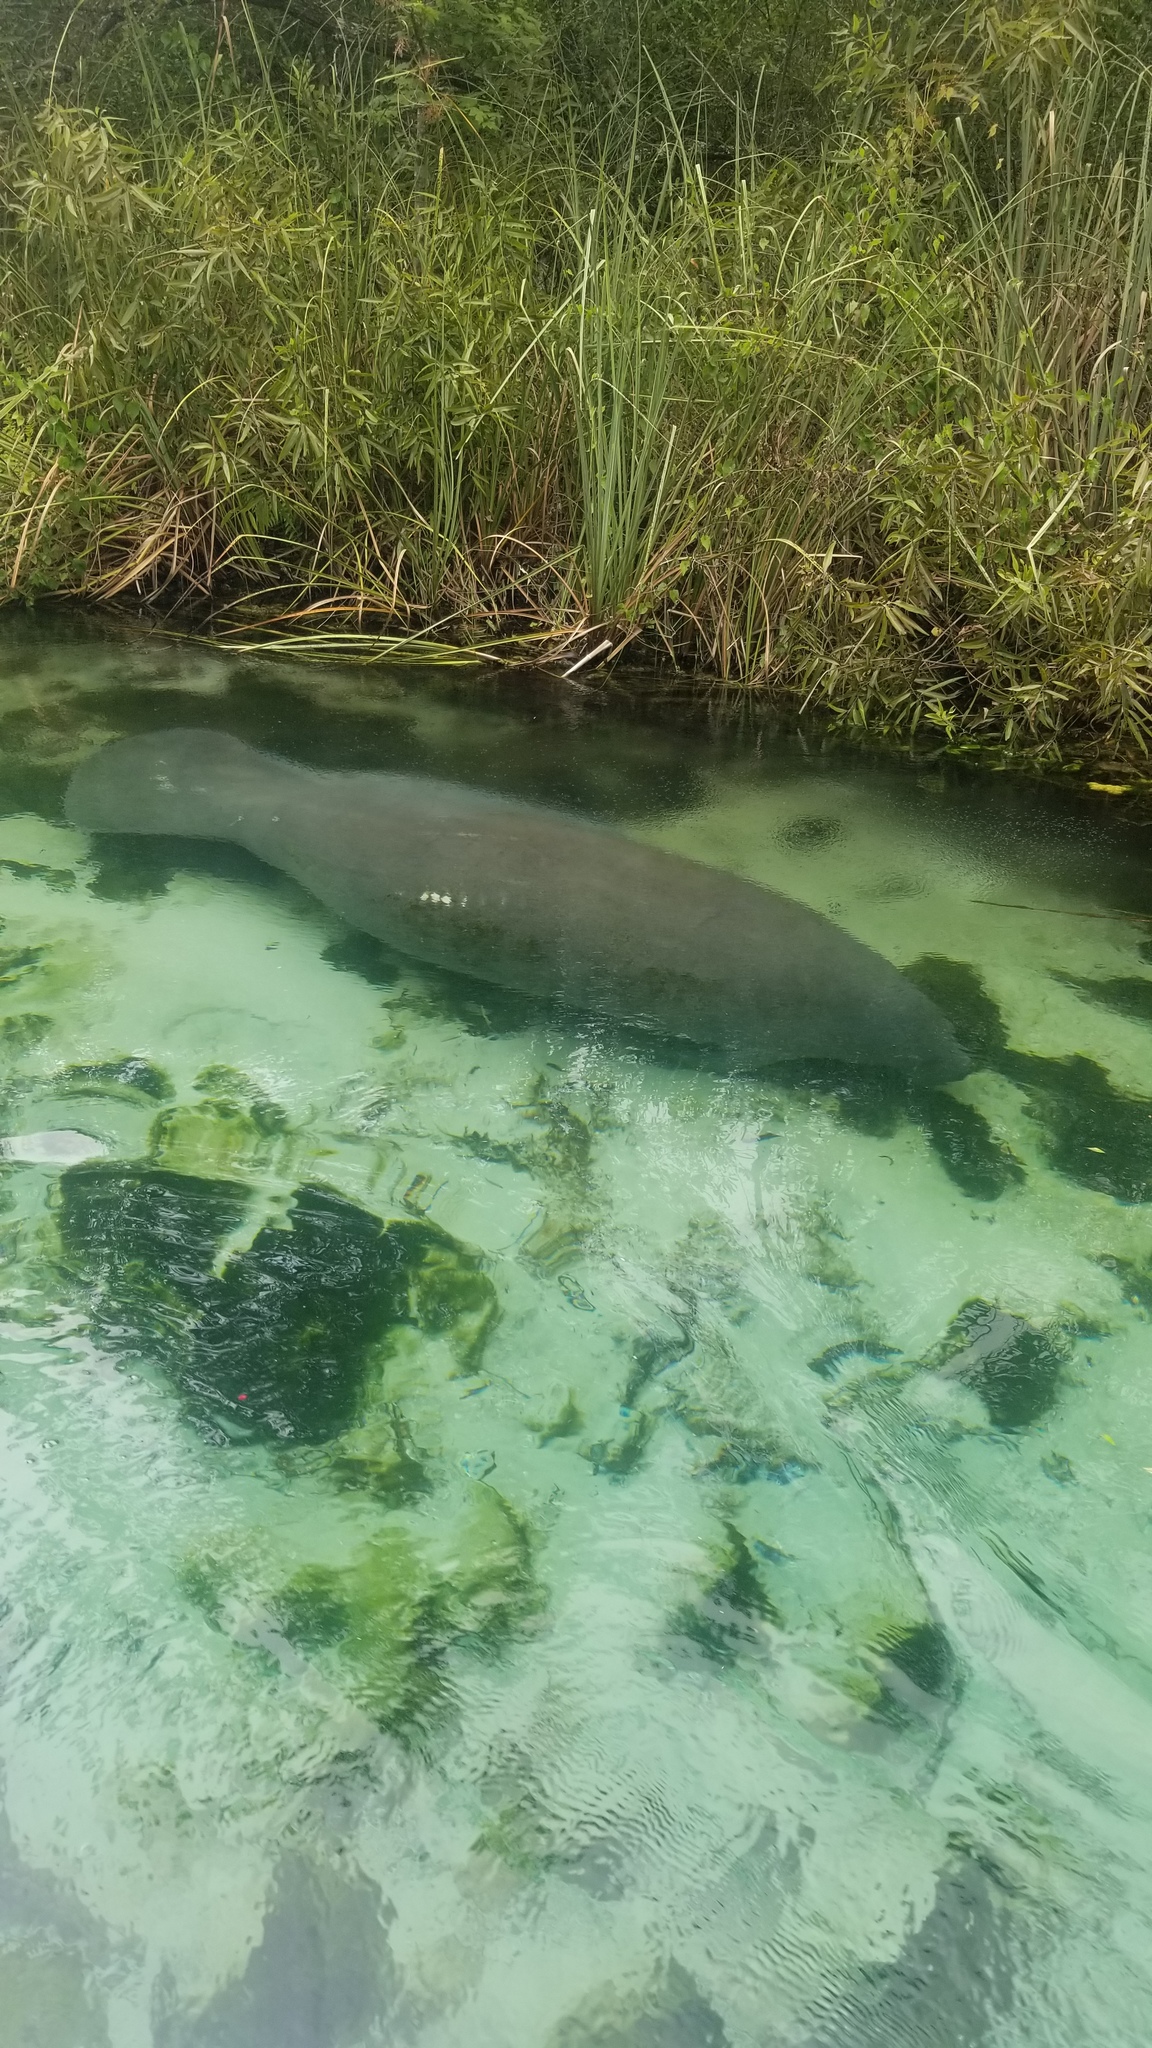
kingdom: Animalia
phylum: Chordata
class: Mammalia
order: Sirenia
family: Trichechidae
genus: Trichechus
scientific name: Trichechus manatus
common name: West indian manatee
